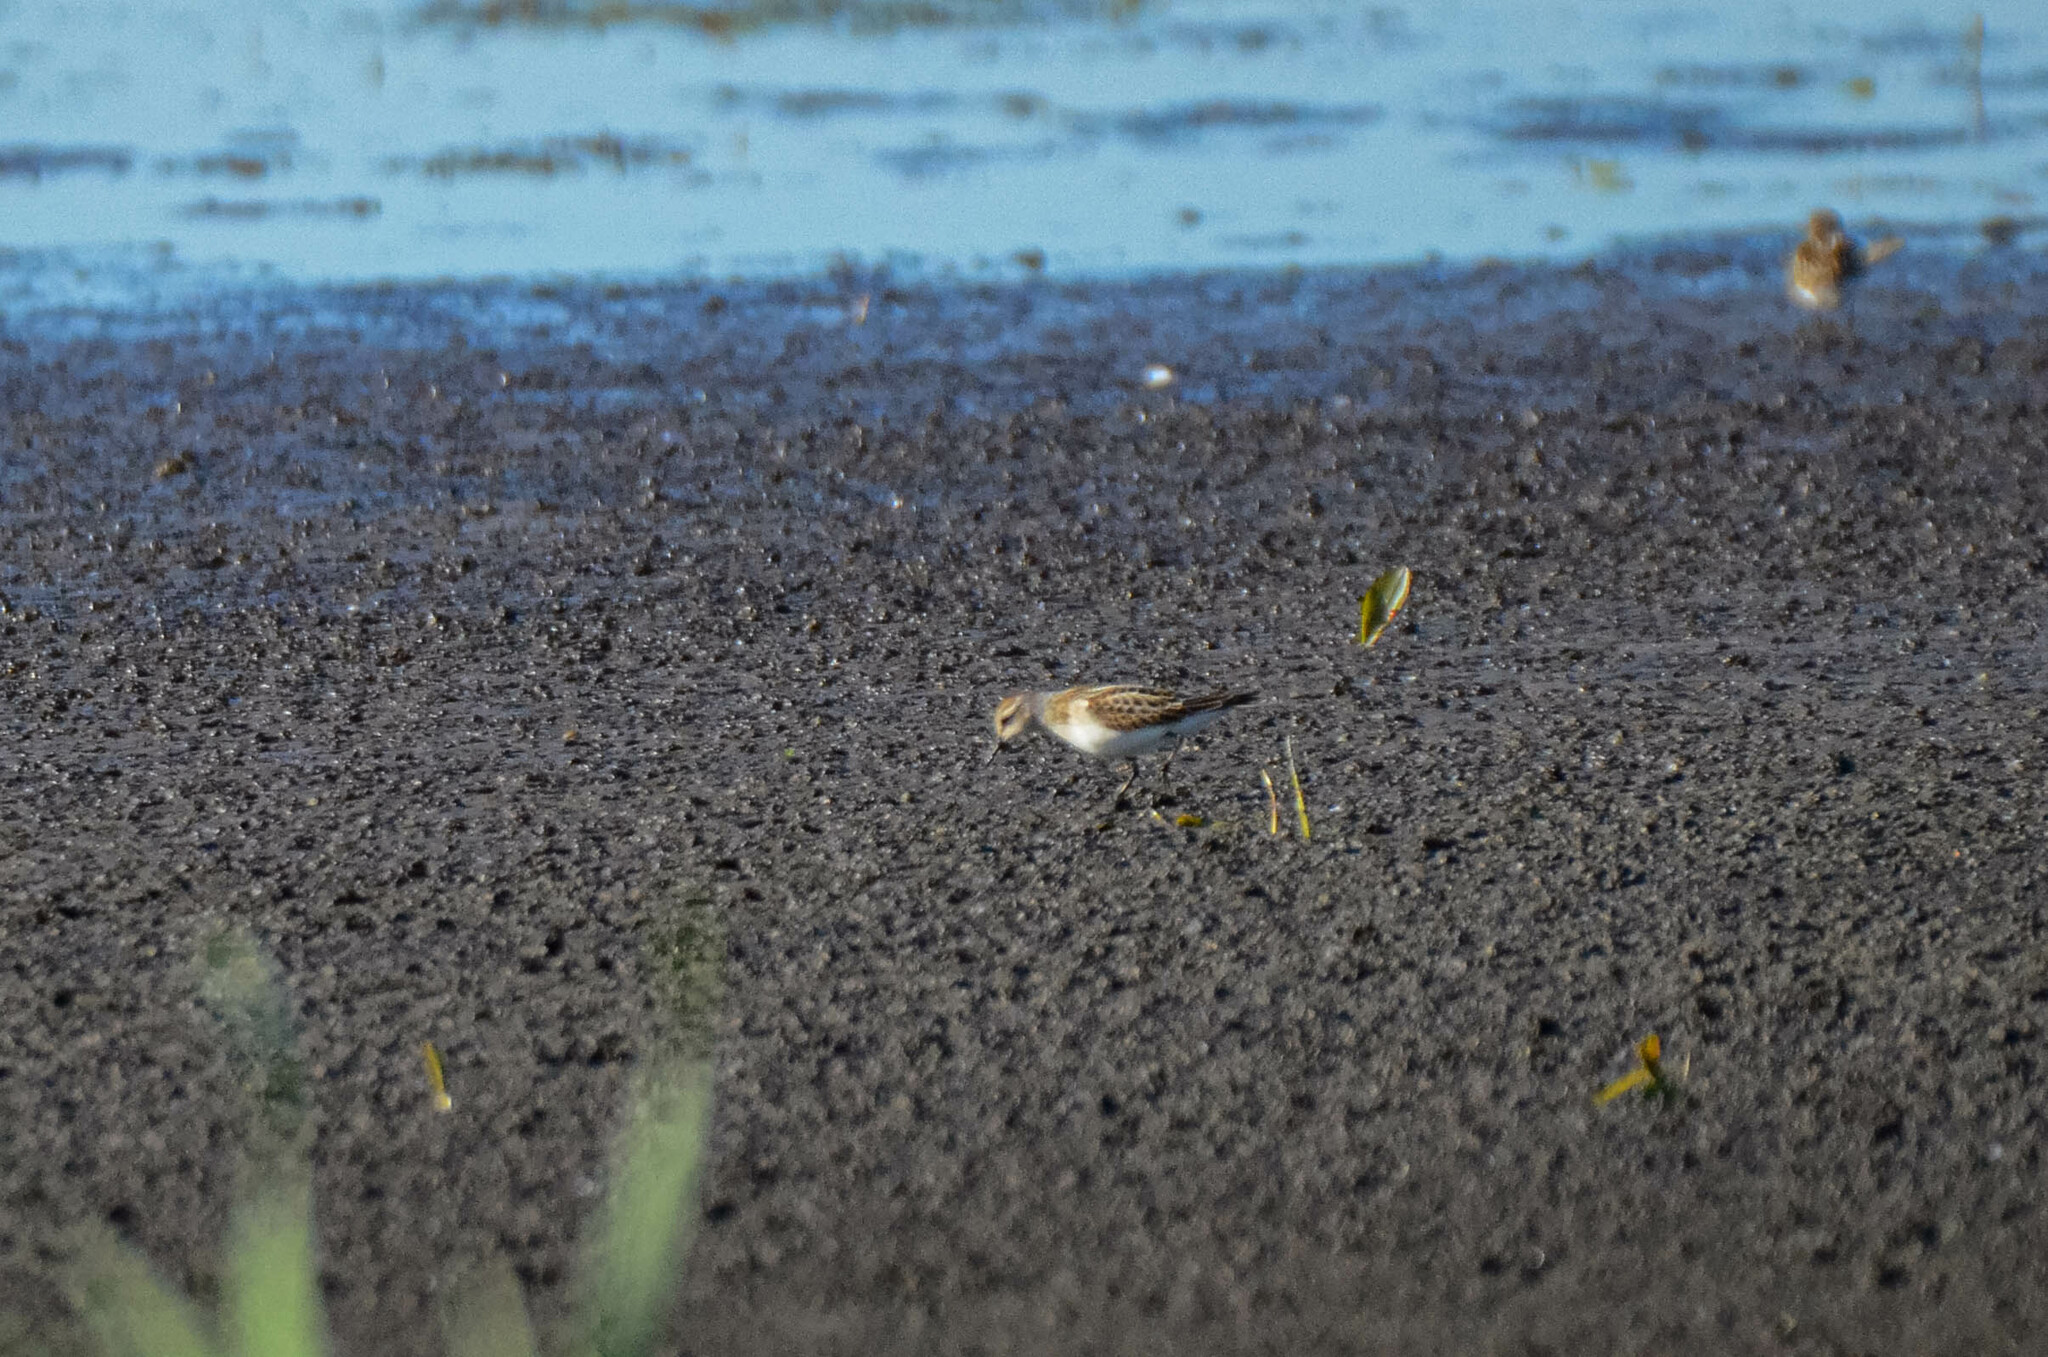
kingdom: Animalia
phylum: Chordata
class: Aves
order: Charadriiformes
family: Scolopacidae
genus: Calidris
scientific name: Calidris minuta
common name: Little stint
